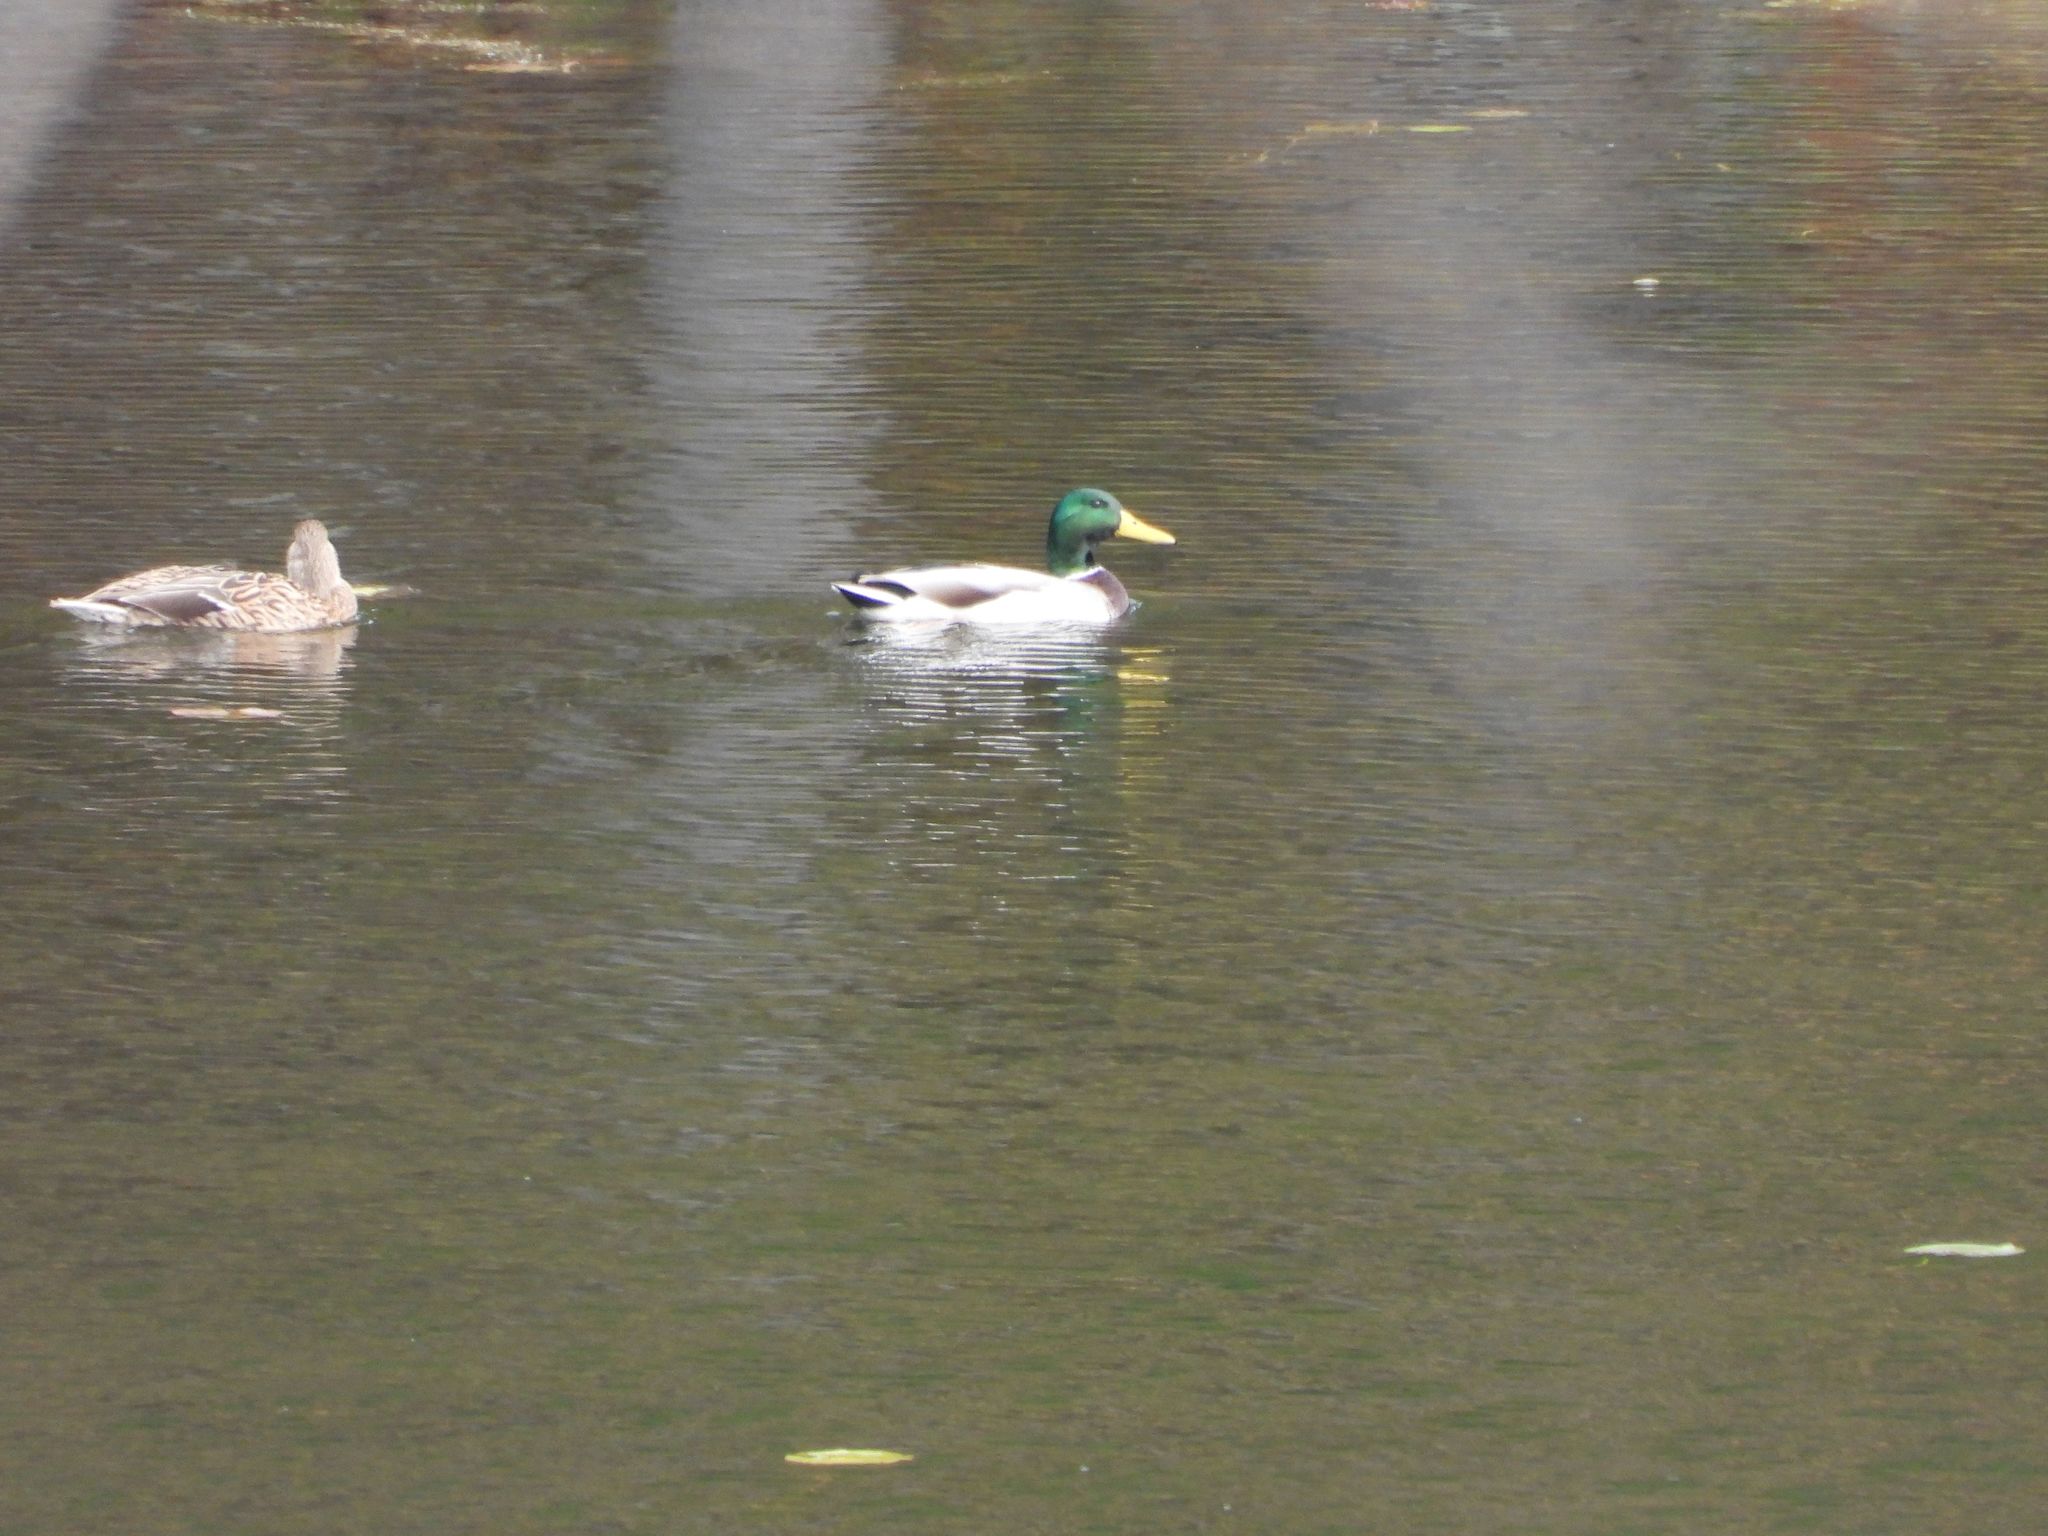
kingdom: Animalia
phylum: Chordata
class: Aves
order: Anseriformes
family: Anatidae
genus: Anas
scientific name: Anas platyrhynchos
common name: Mallard
